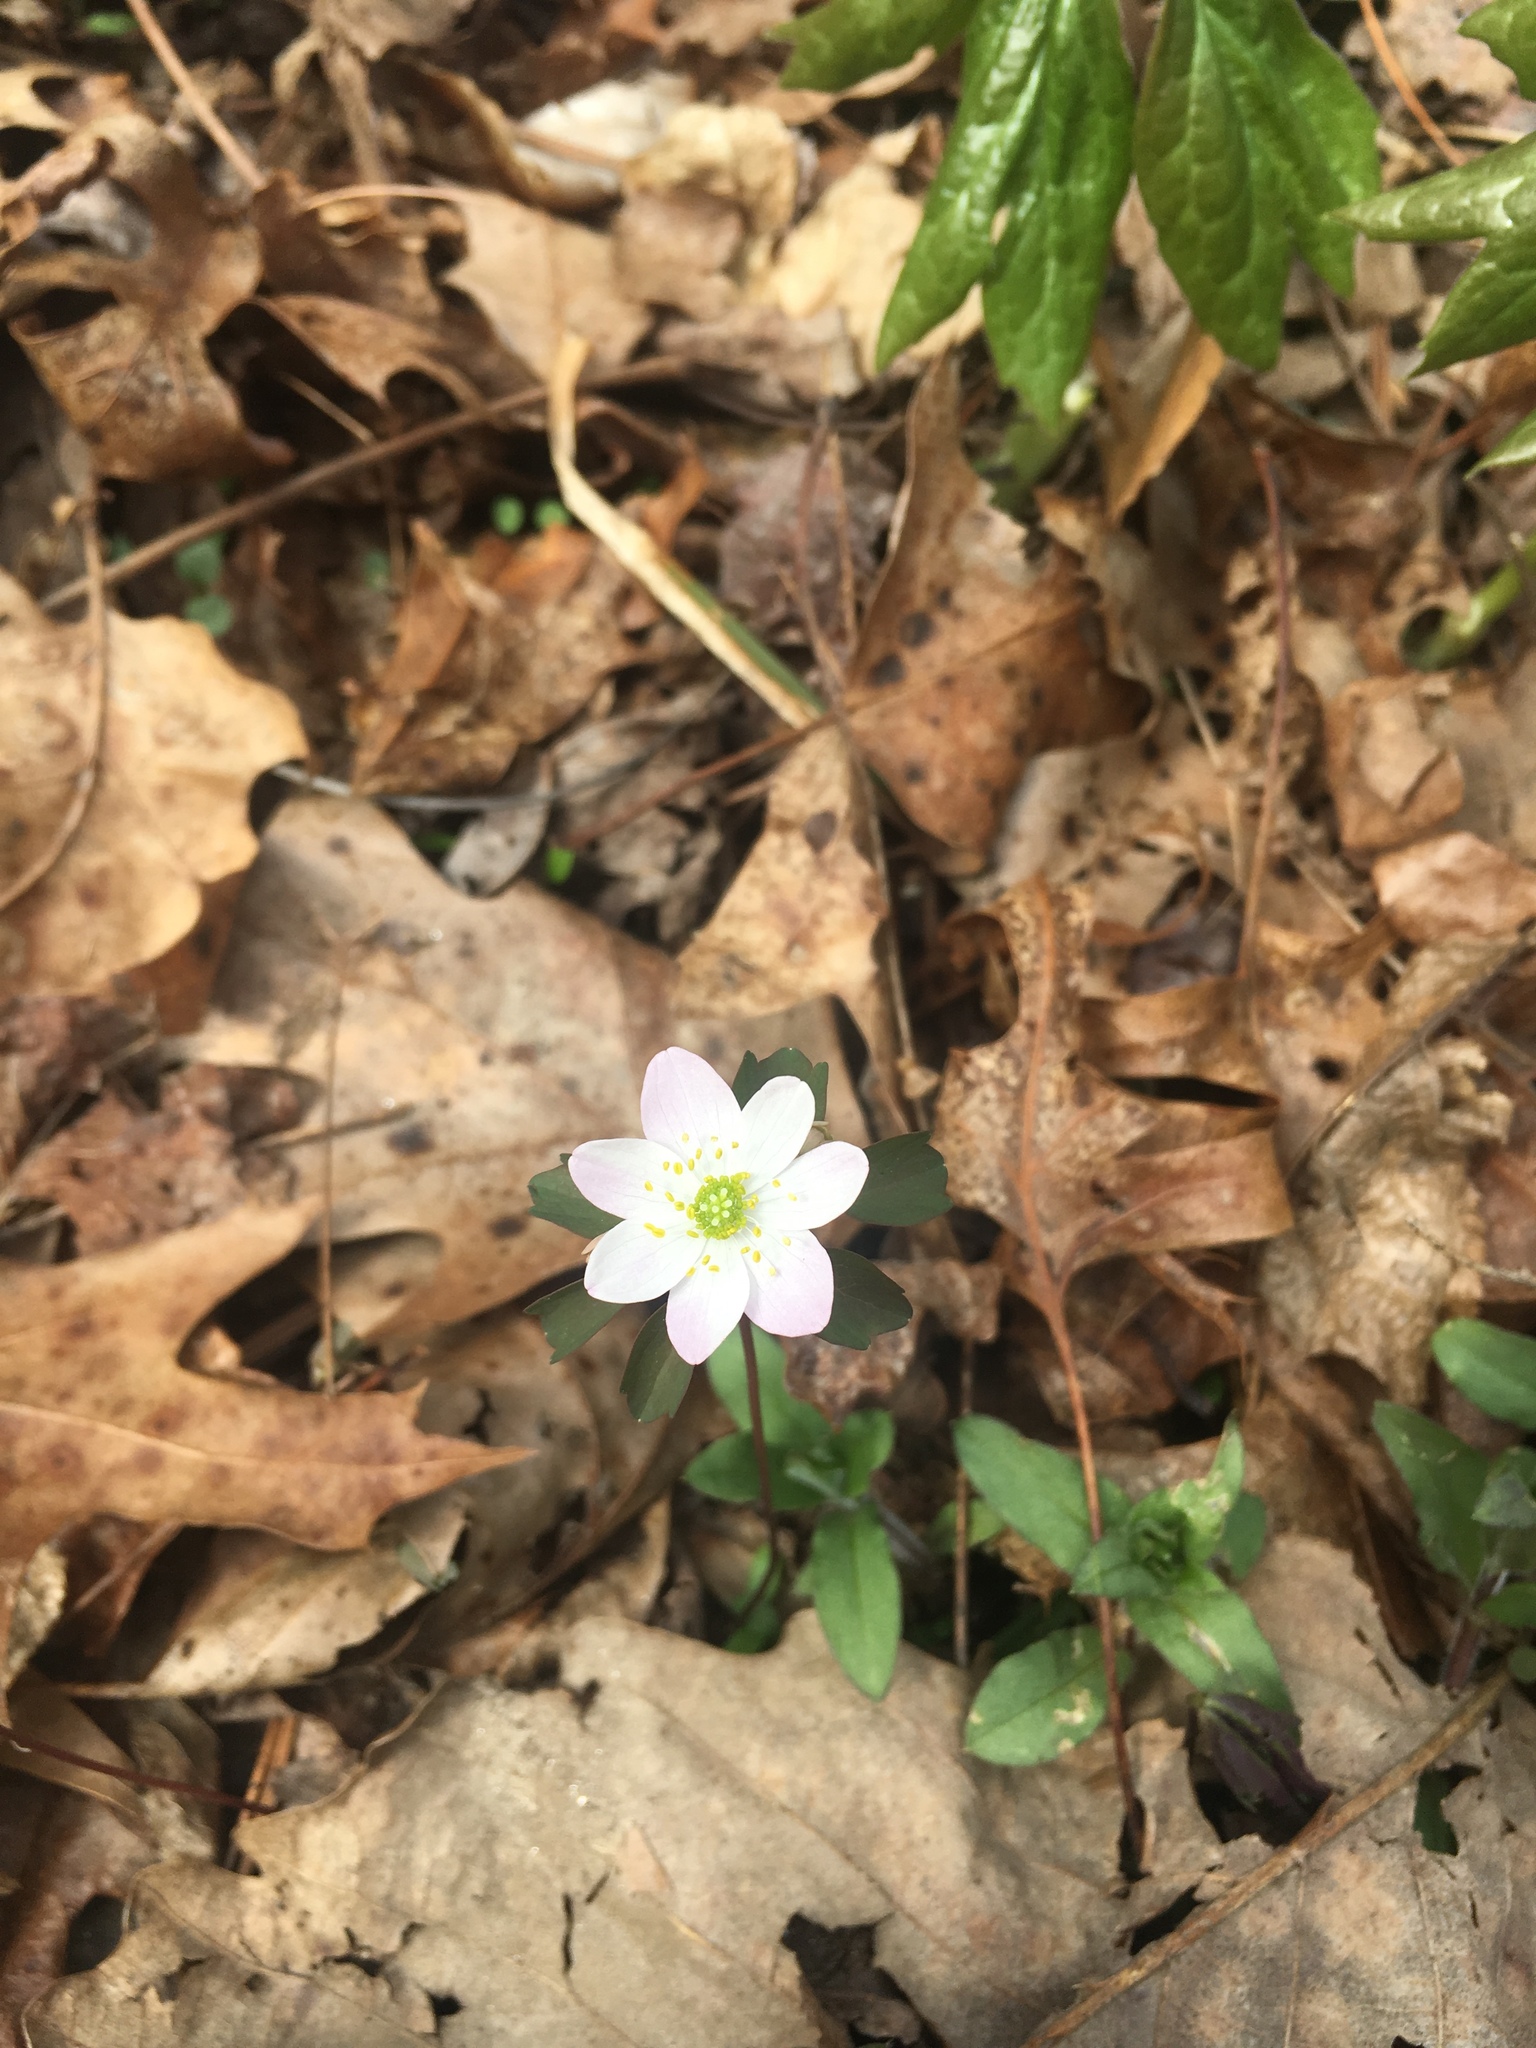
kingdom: Plantae
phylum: Tracheophyta
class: Magnoliopsida
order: Ranunculales
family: Ranunculaceae
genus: Thalictrum
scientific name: Thalictrum thalictroides
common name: Rue-anemone
